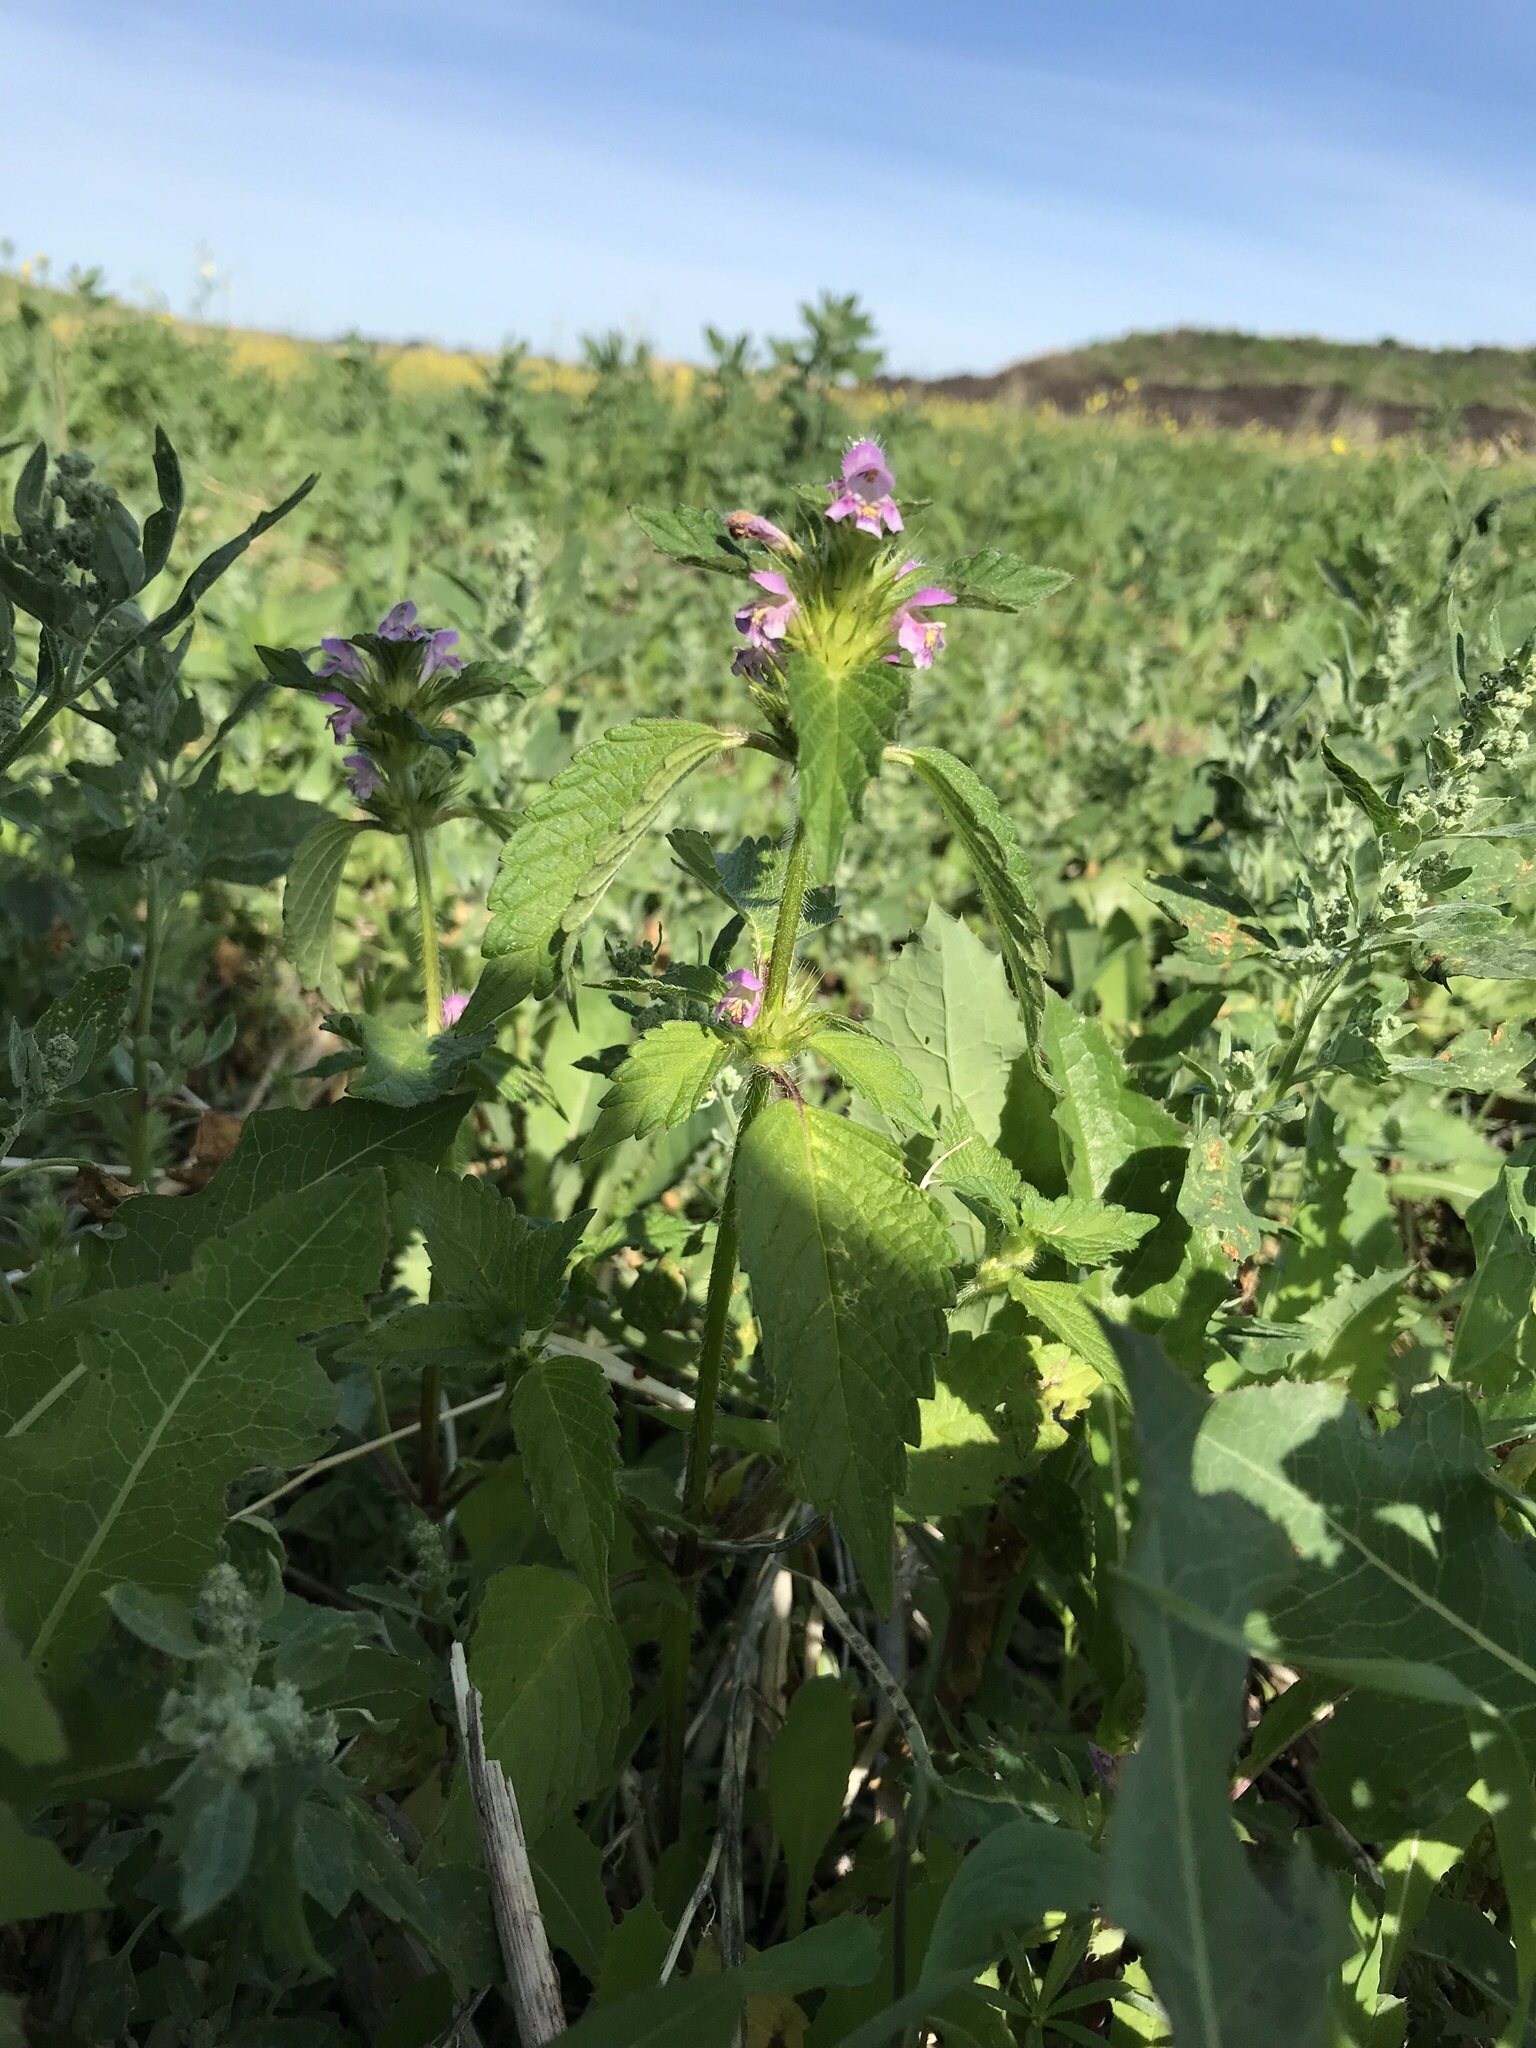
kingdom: Plantae
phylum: Tracheophyta
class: Magnoliopsida
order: Lamiales
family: Lamiaceae
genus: Galeopsis
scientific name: Galeopsis tetrahit
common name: Common hemp-nettle
